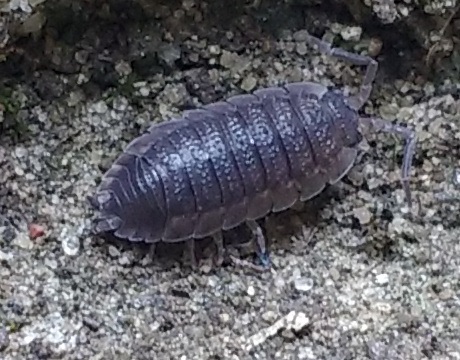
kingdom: Animalia
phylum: Arthropoda
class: Malacostraca
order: Isopoda
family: Porcellionidae
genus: Porcellio
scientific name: Porcellio scaber
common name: Common rough woodlouse
